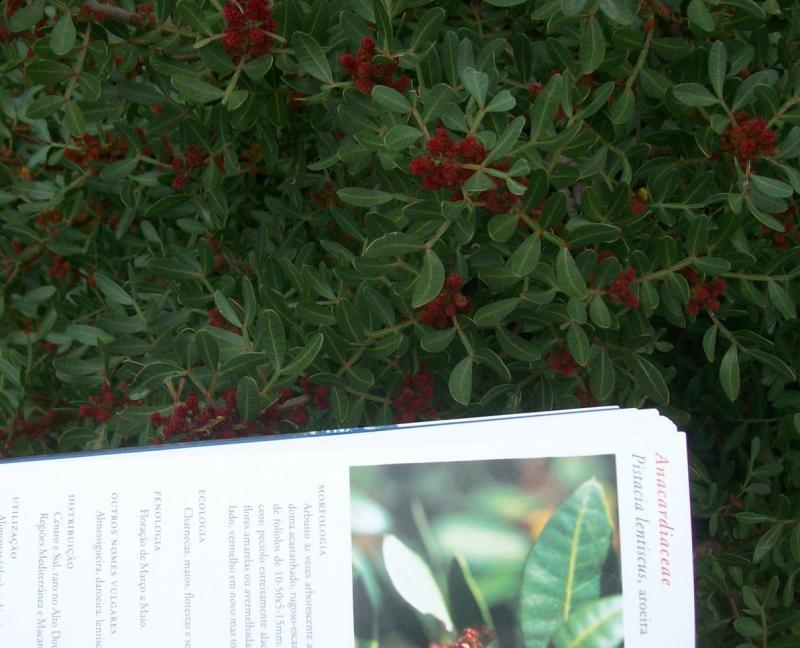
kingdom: Plantae
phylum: Tracheophyta
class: Magnoliopsida
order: Sapindales
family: Anacardiaceae
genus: Pistacia
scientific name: Pistacia lentiscus
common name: Lentisk
